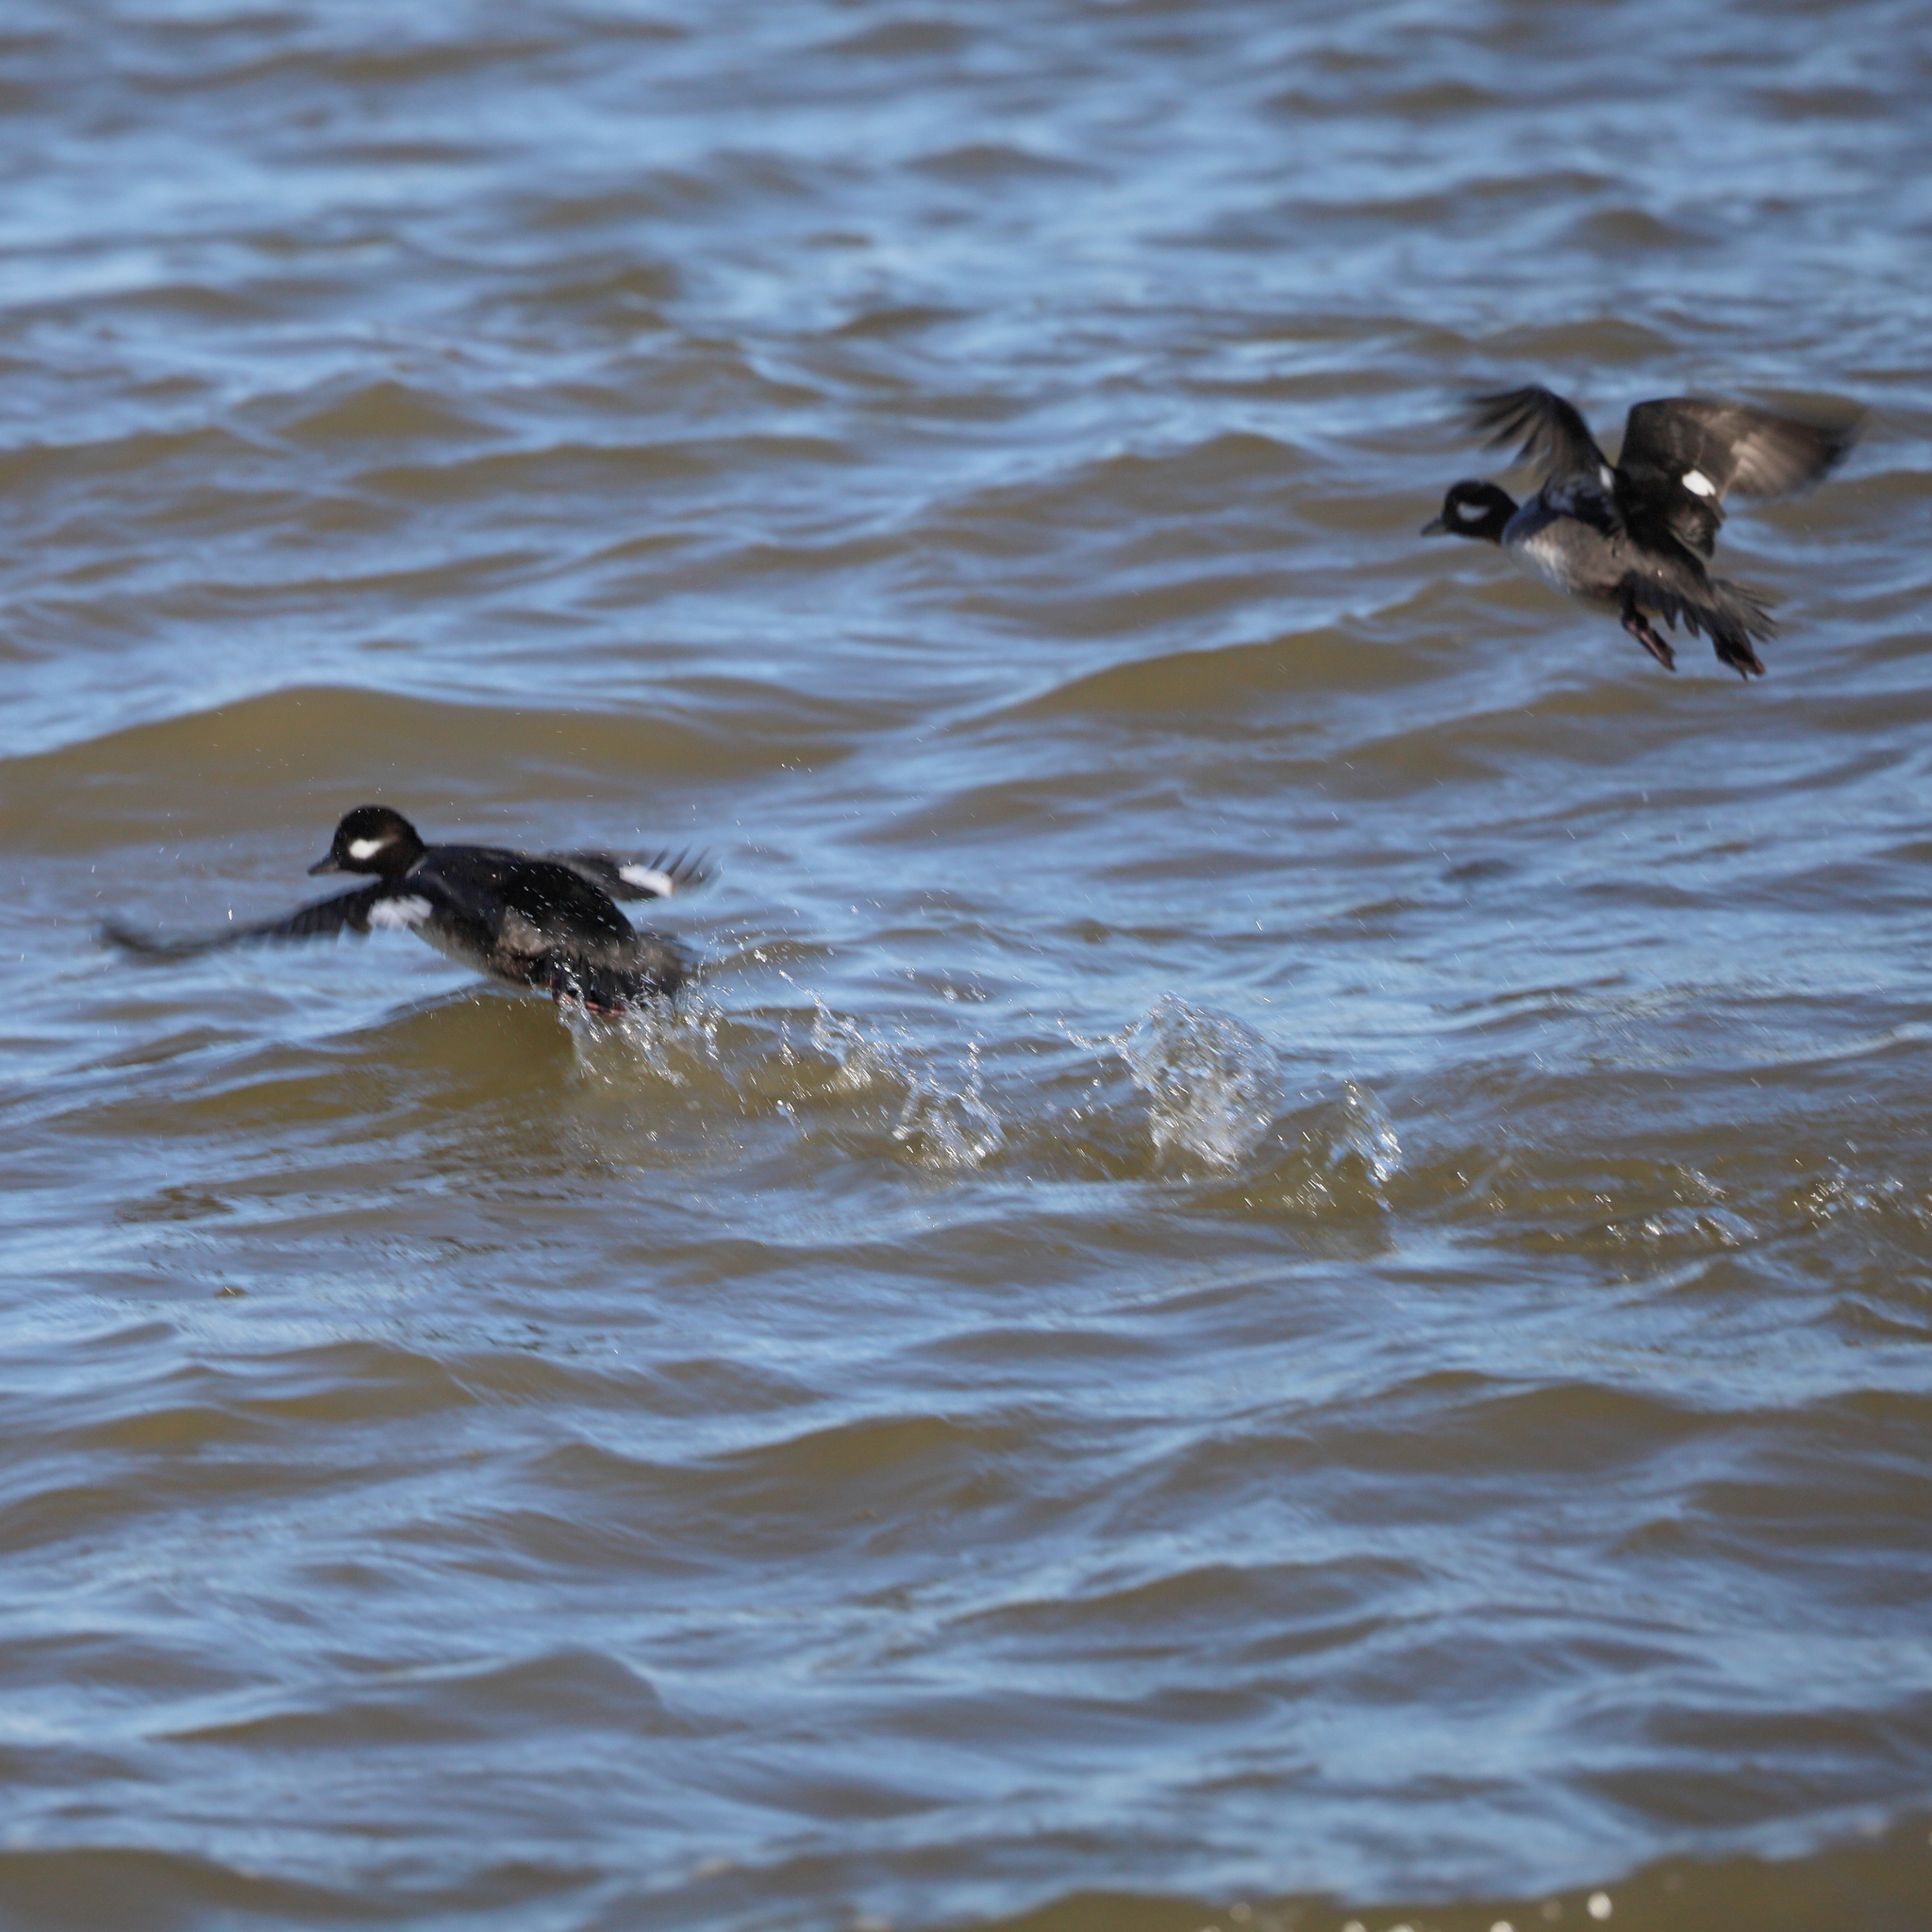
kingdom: Animalia
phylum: Chordata
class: Aves
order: Anseriformes
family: Anatidae
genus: Bucephala
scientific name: Bucephala albeola
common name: Bufflehead
